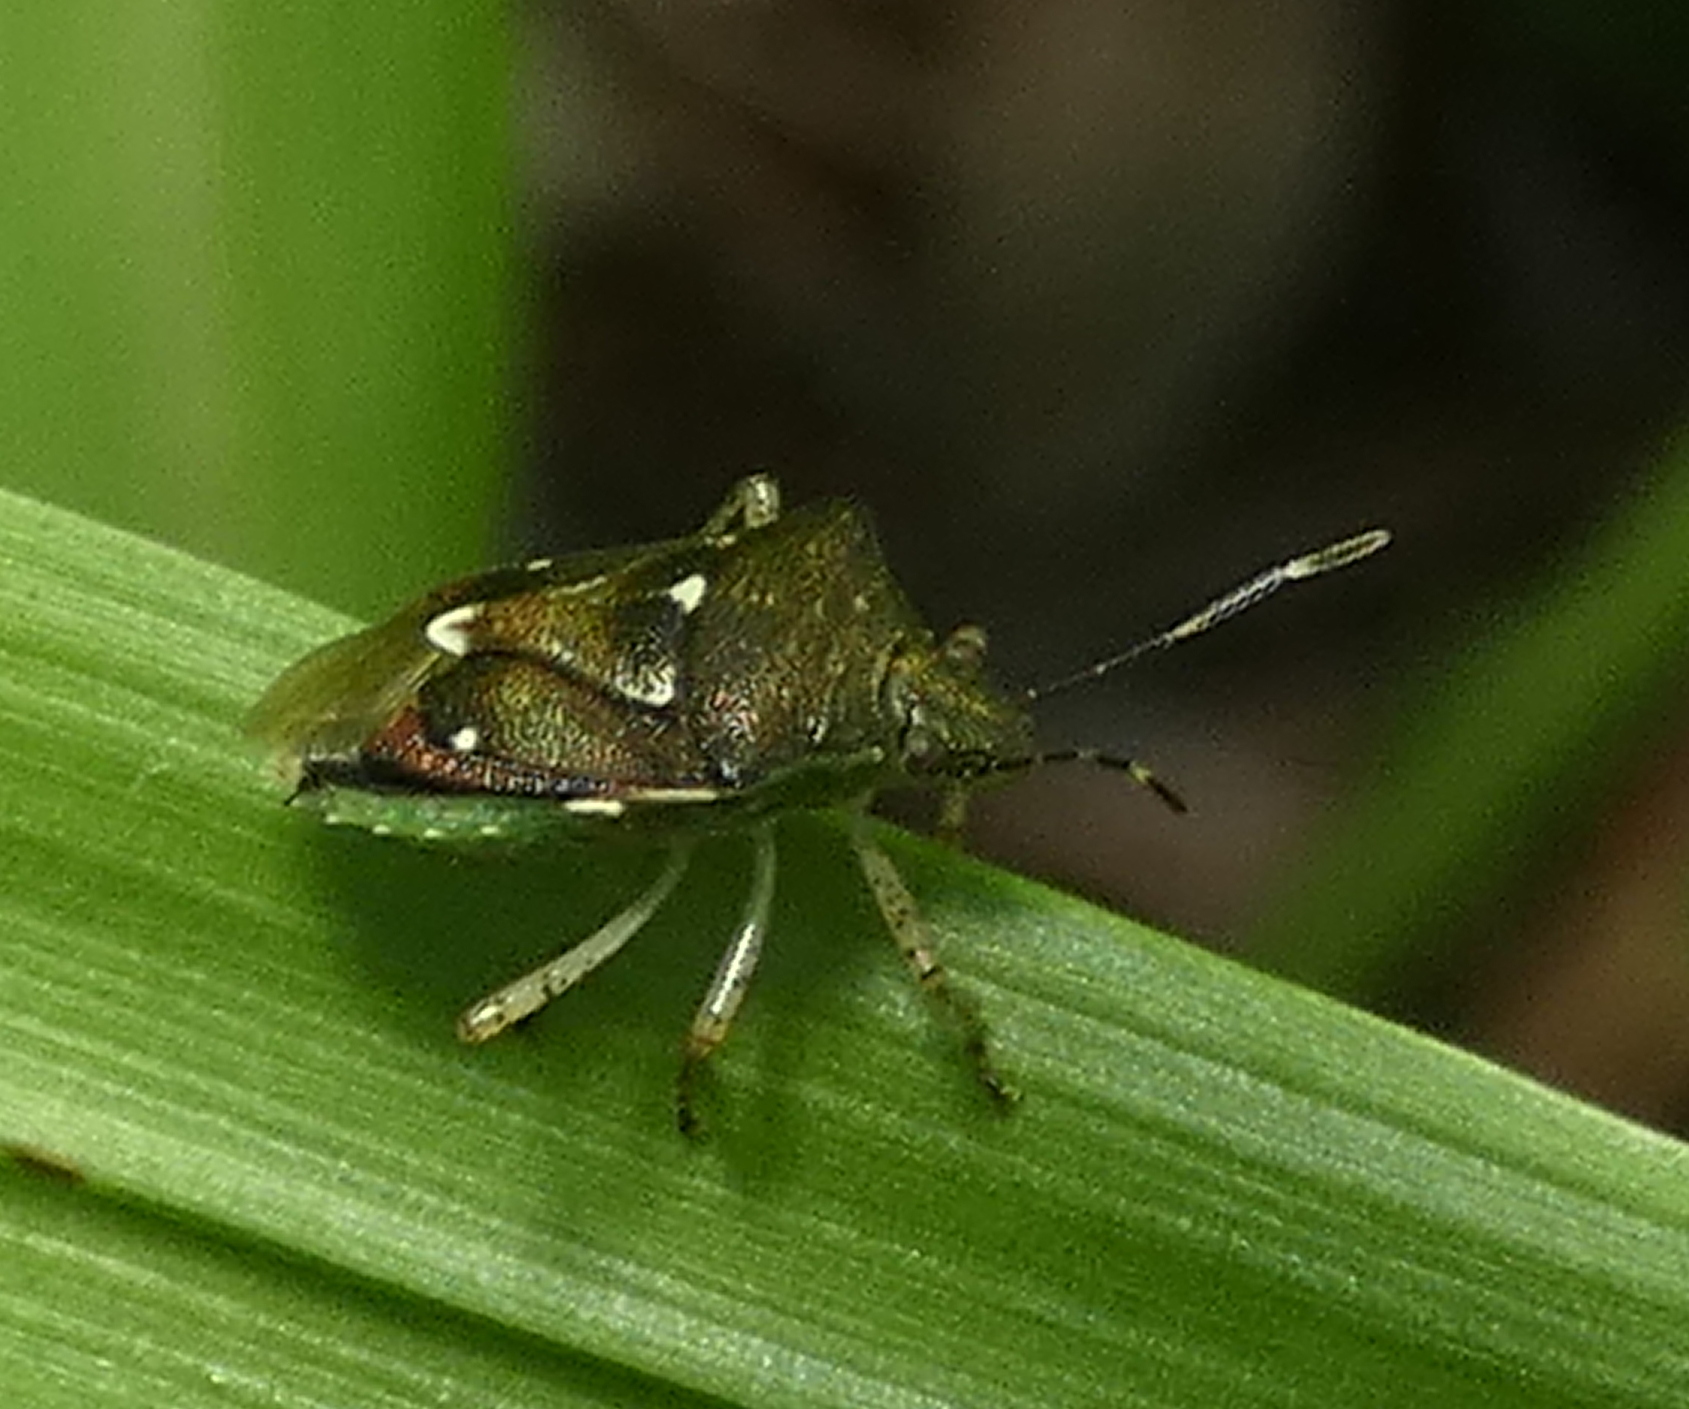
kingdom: Animalia
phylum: Arthropoda
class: Insecta
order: Hemiptera
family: Pentatomidae
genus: Mormidea
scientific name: Mormidea notulifera
